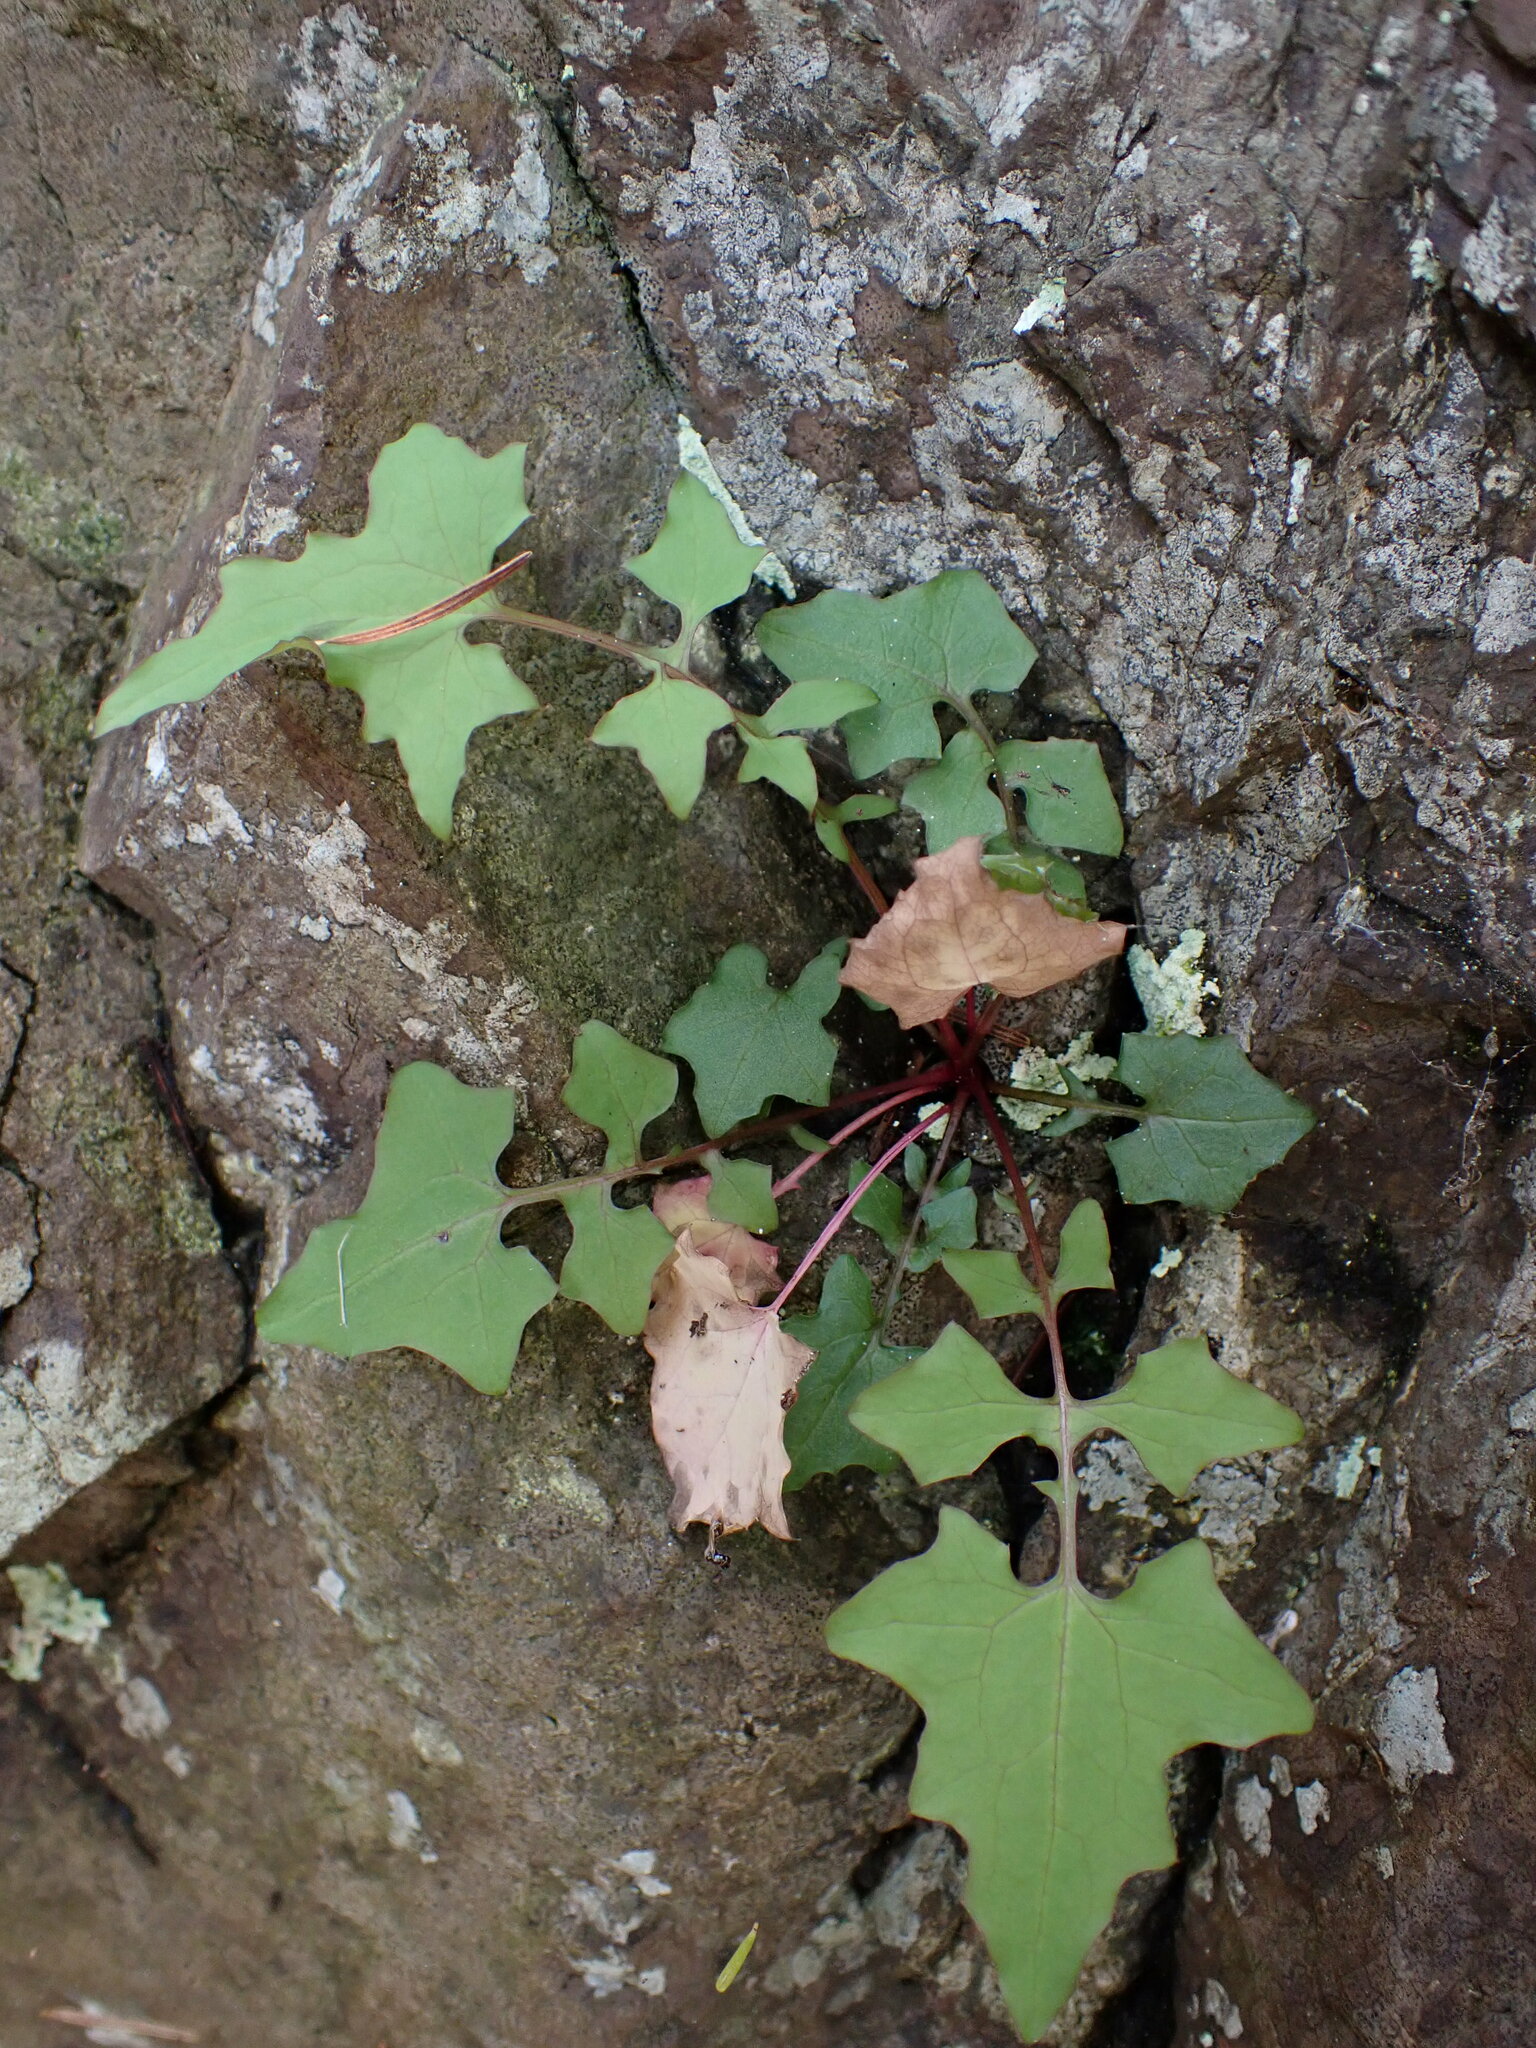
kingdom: Plantae
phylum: Tracheophyta
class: Magnoliopsida
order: Asterales
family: Asteraceae
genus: Mycelis
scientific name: Mycelis muralis
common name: Wall lettuce
